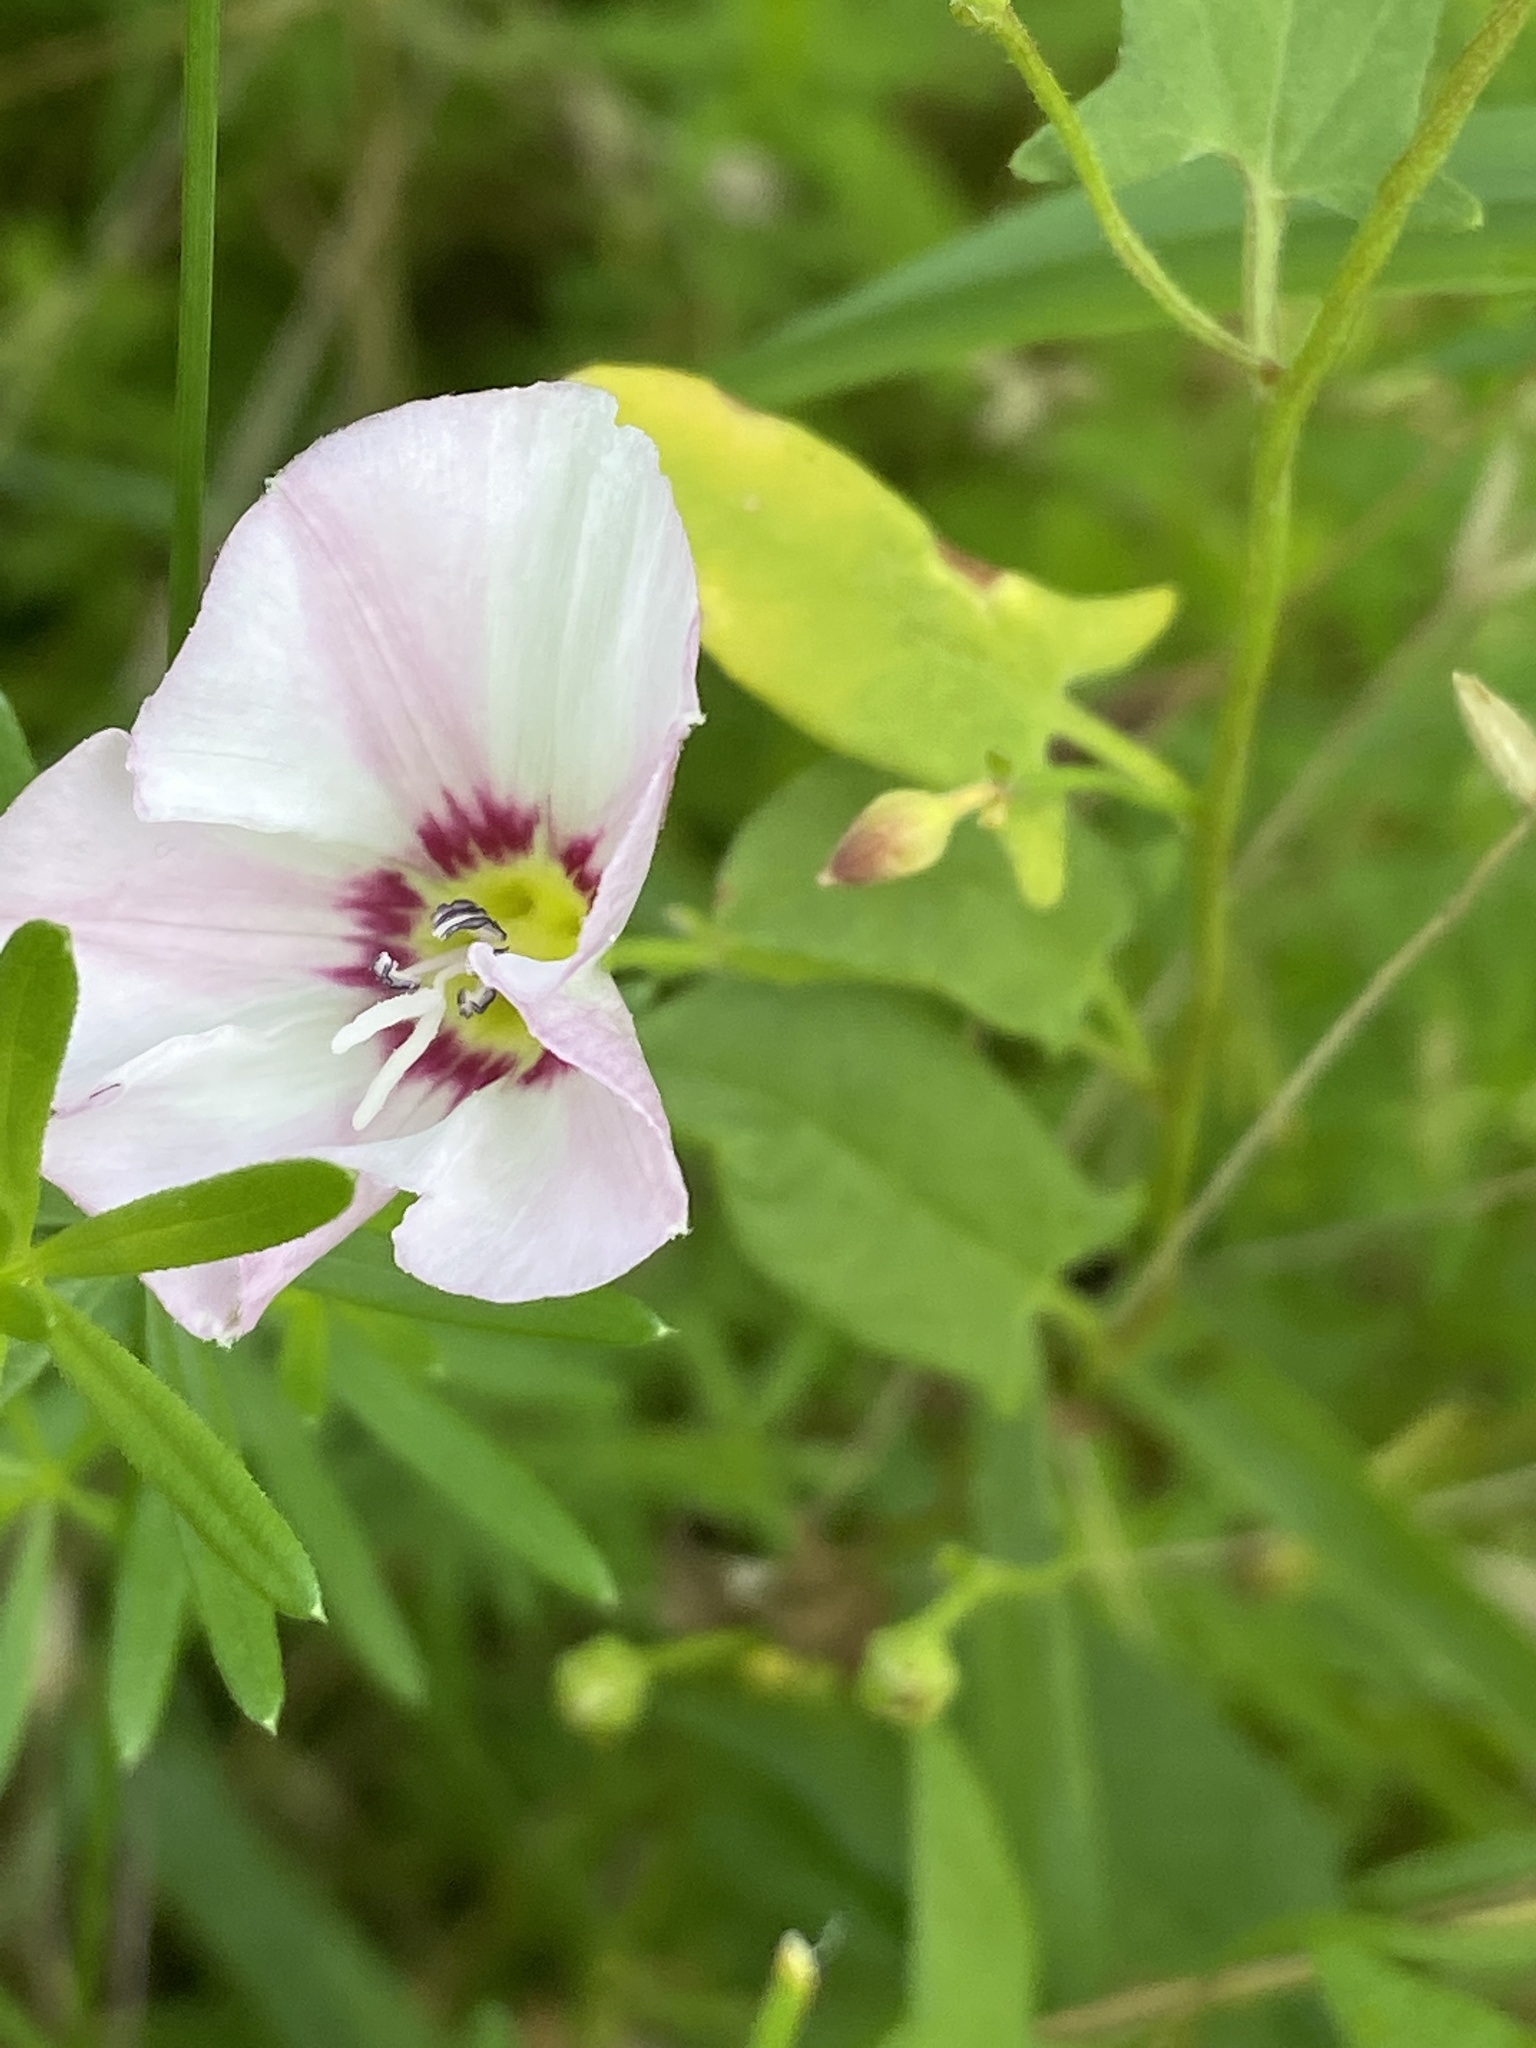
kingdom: Plantae
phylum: Tracheophyta
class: Magnoliopsida
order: Solanales
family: Convolvulaceae
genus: Convolvulus
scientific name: Convolvulus arvensis
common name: Field bindweed
